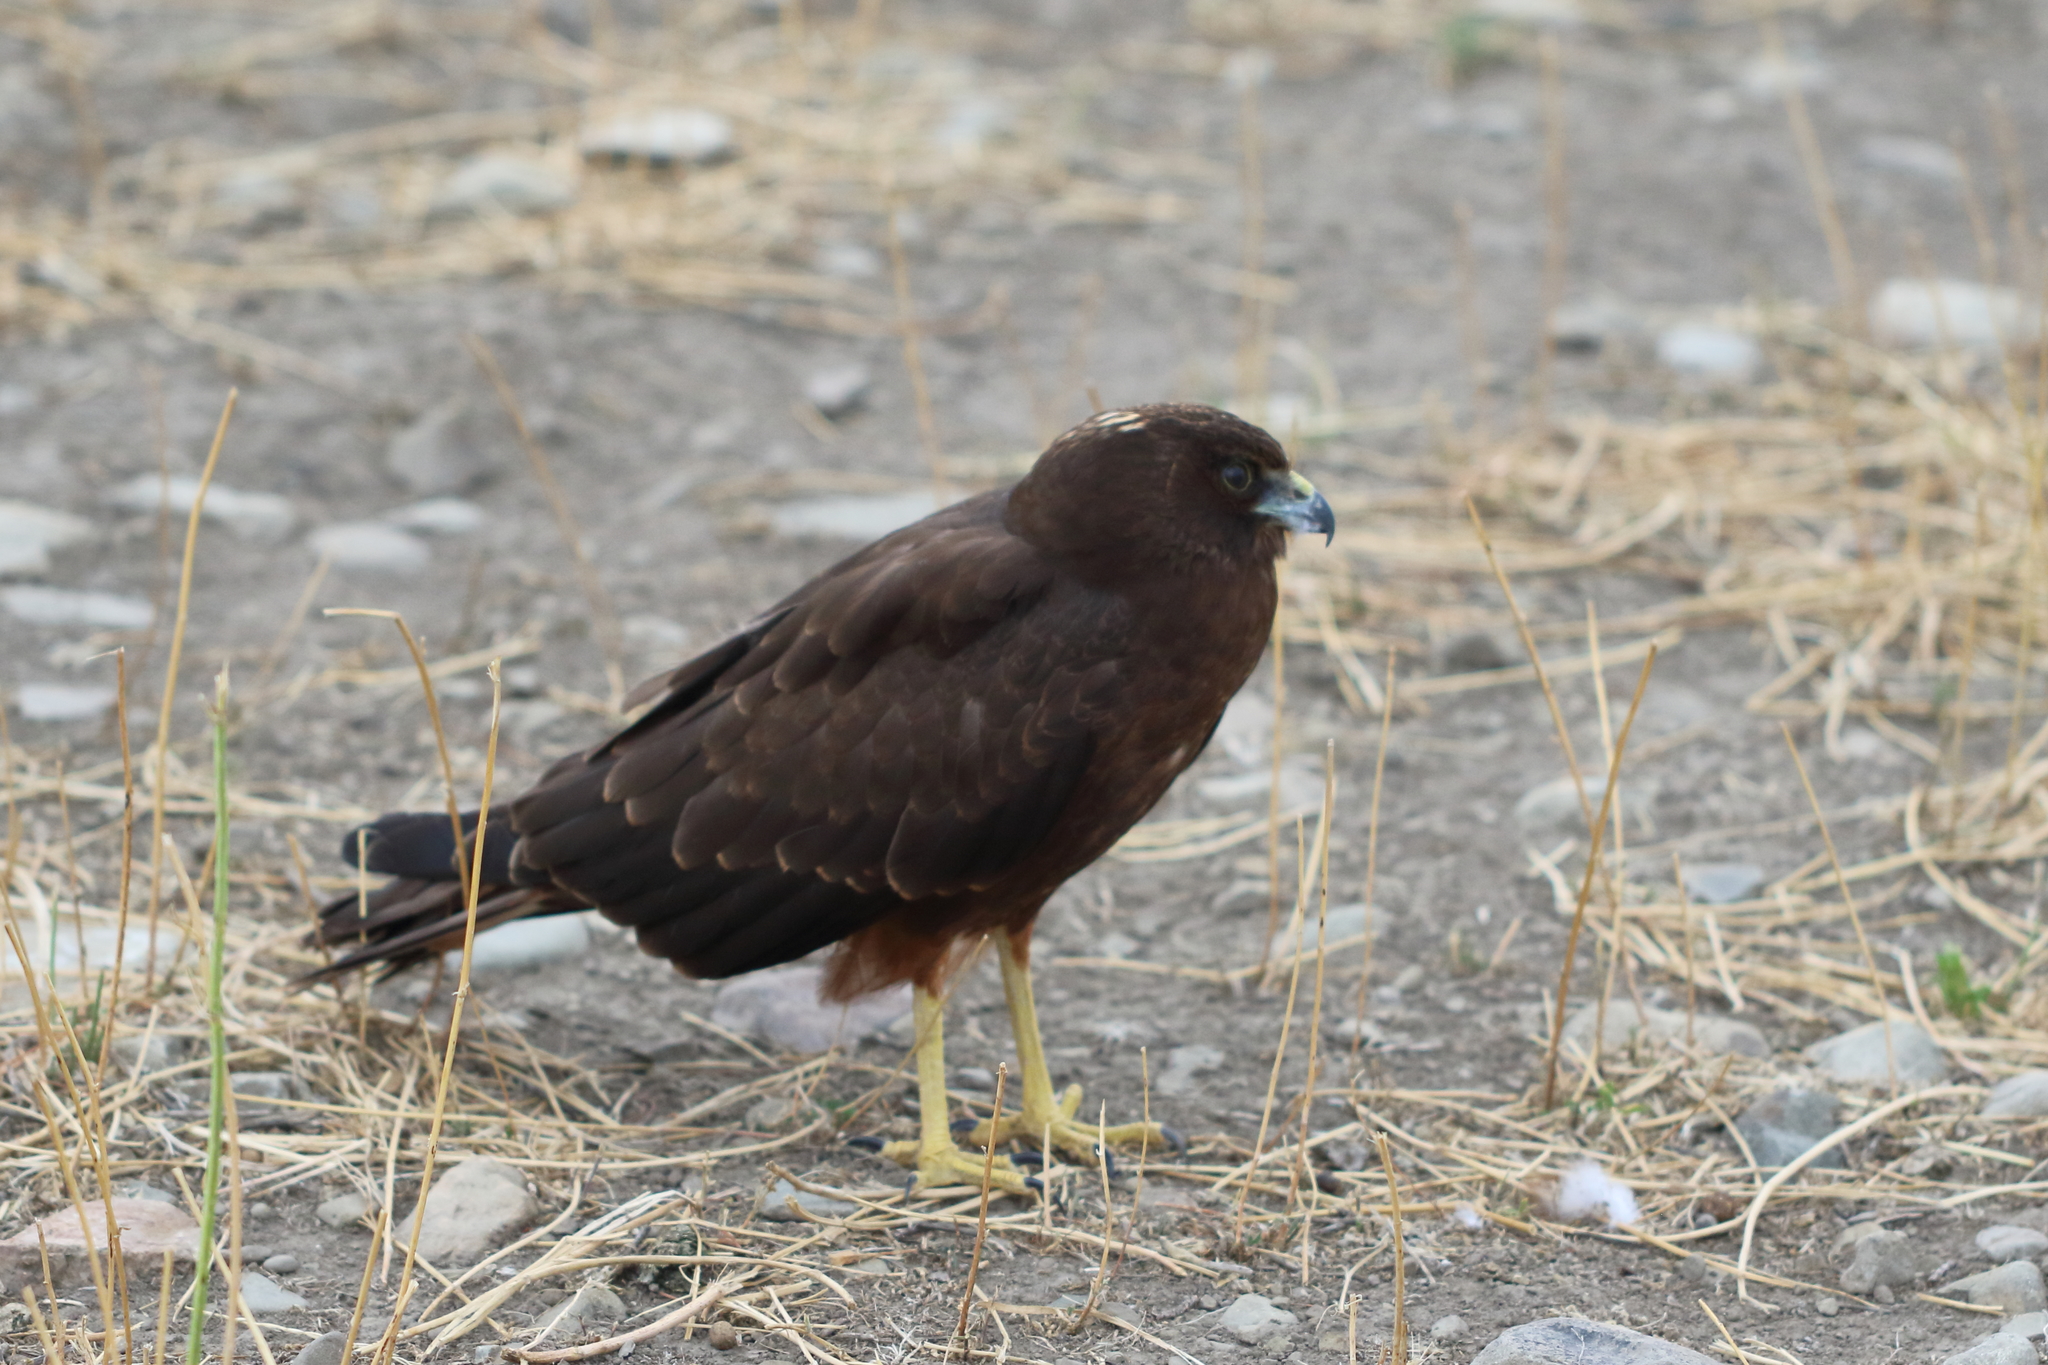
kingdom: Animalia
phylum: Chordata
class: Aves
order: Accipitriformes
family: Accipitridae
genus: Circus
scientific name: Circus approximans
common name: Swamp harrier
